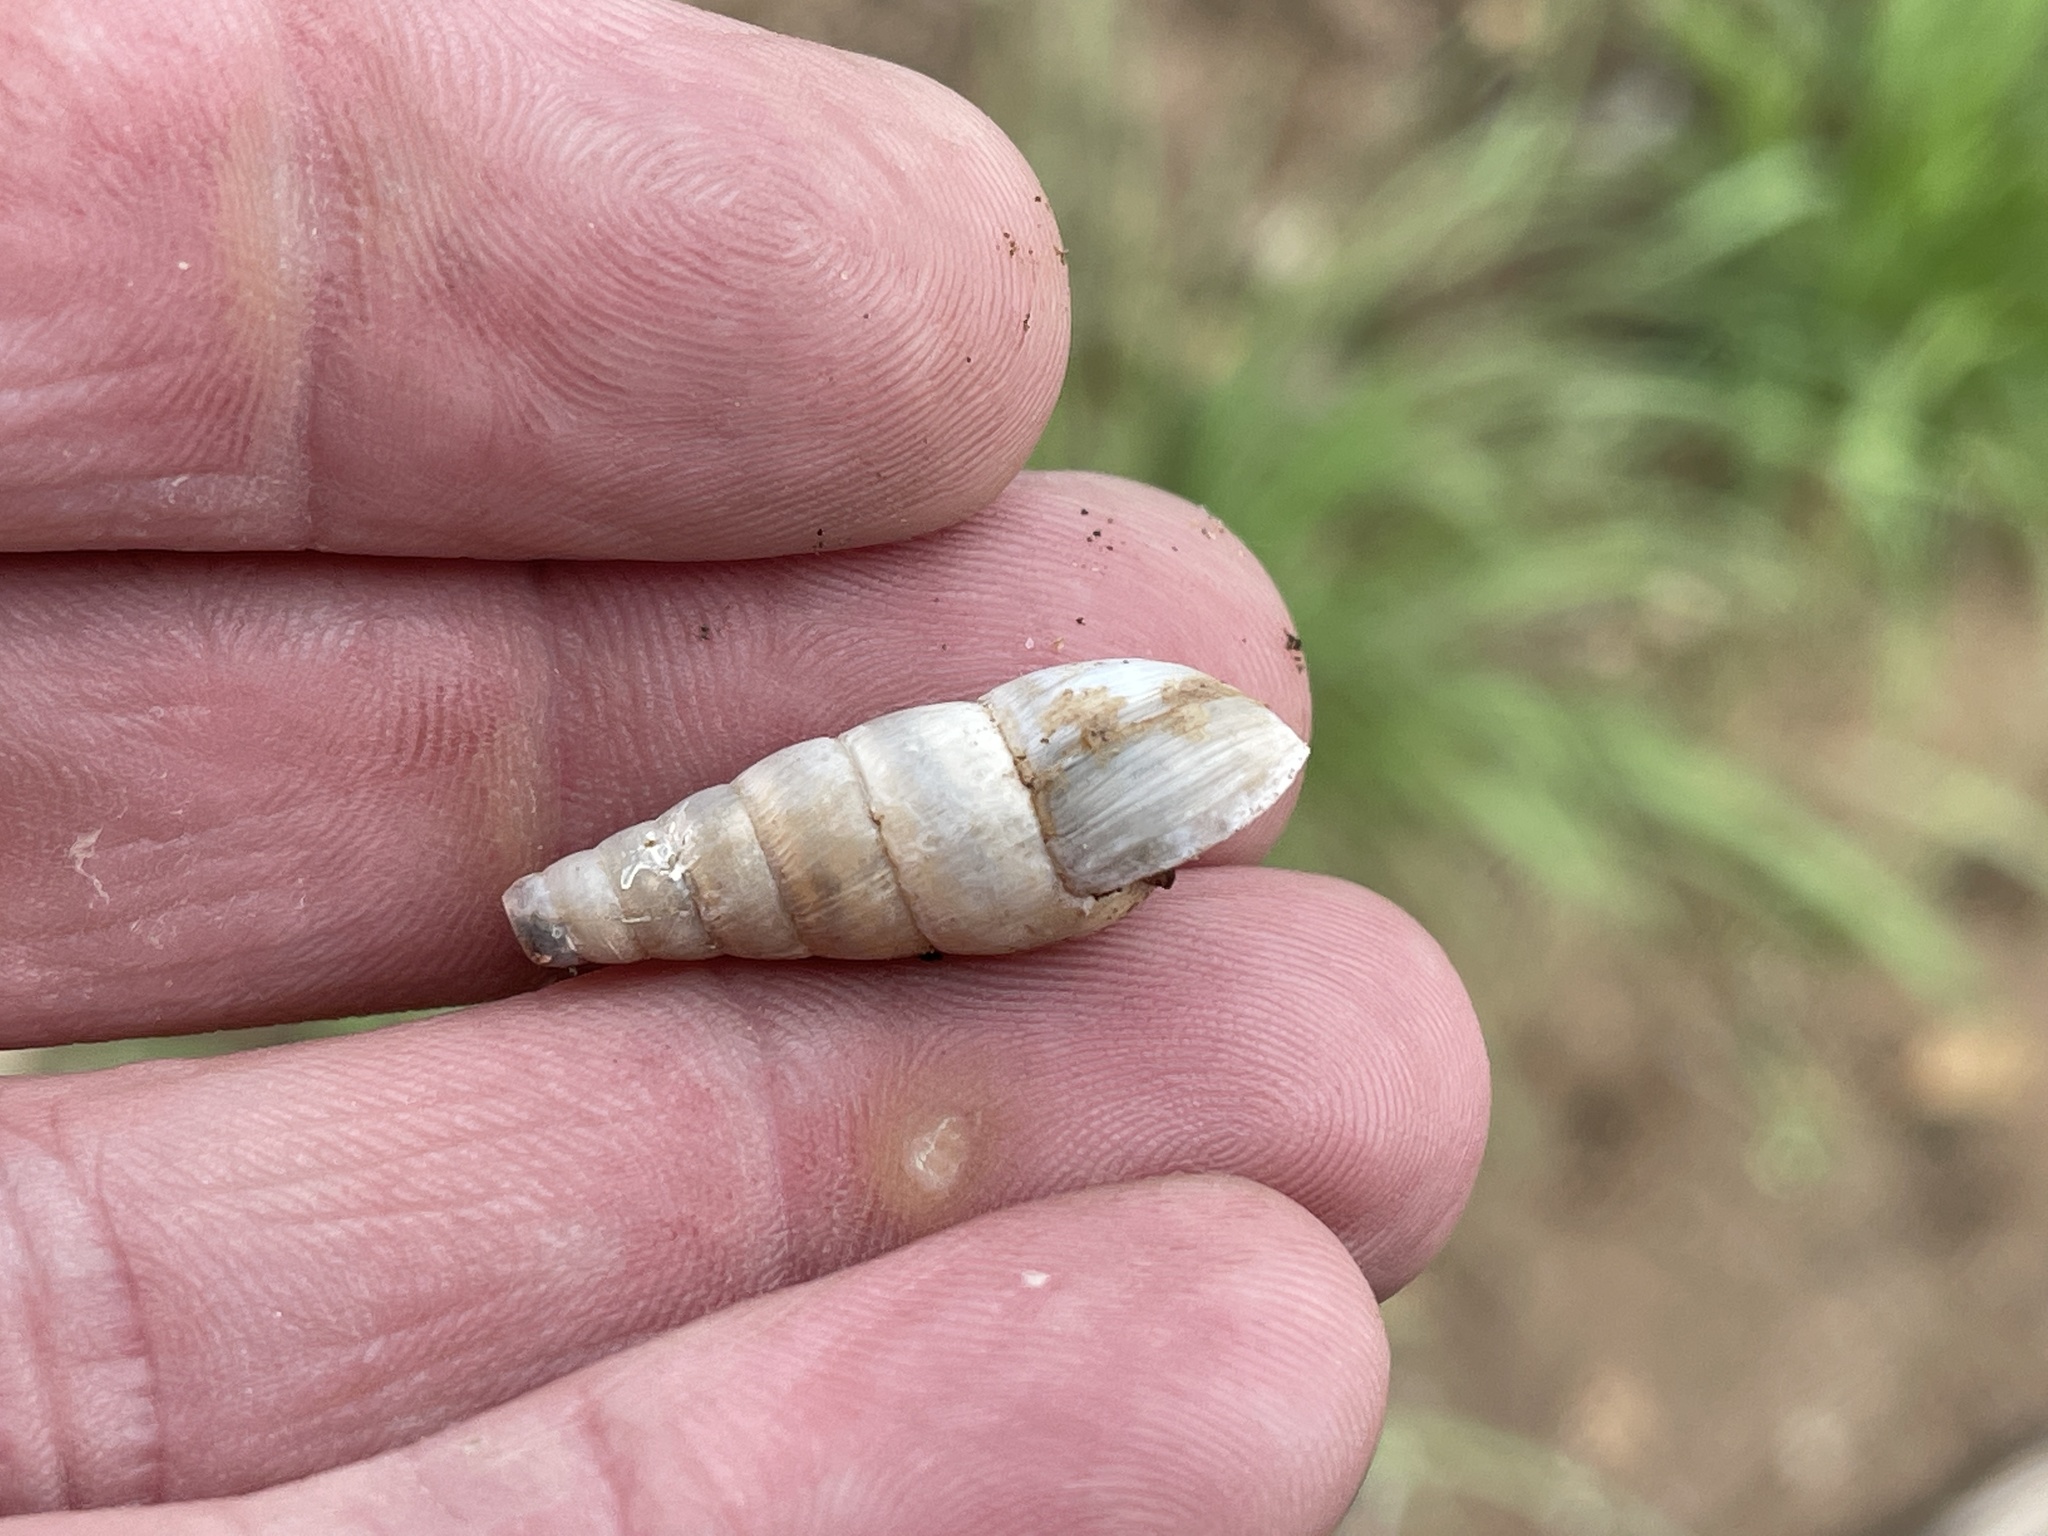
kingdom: Animalia
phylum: Mollusca
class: Gastropoda
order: Stylommatophora
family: Achatinidae
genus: Rumina
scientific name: Rumina decollata
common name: Decollate snail
